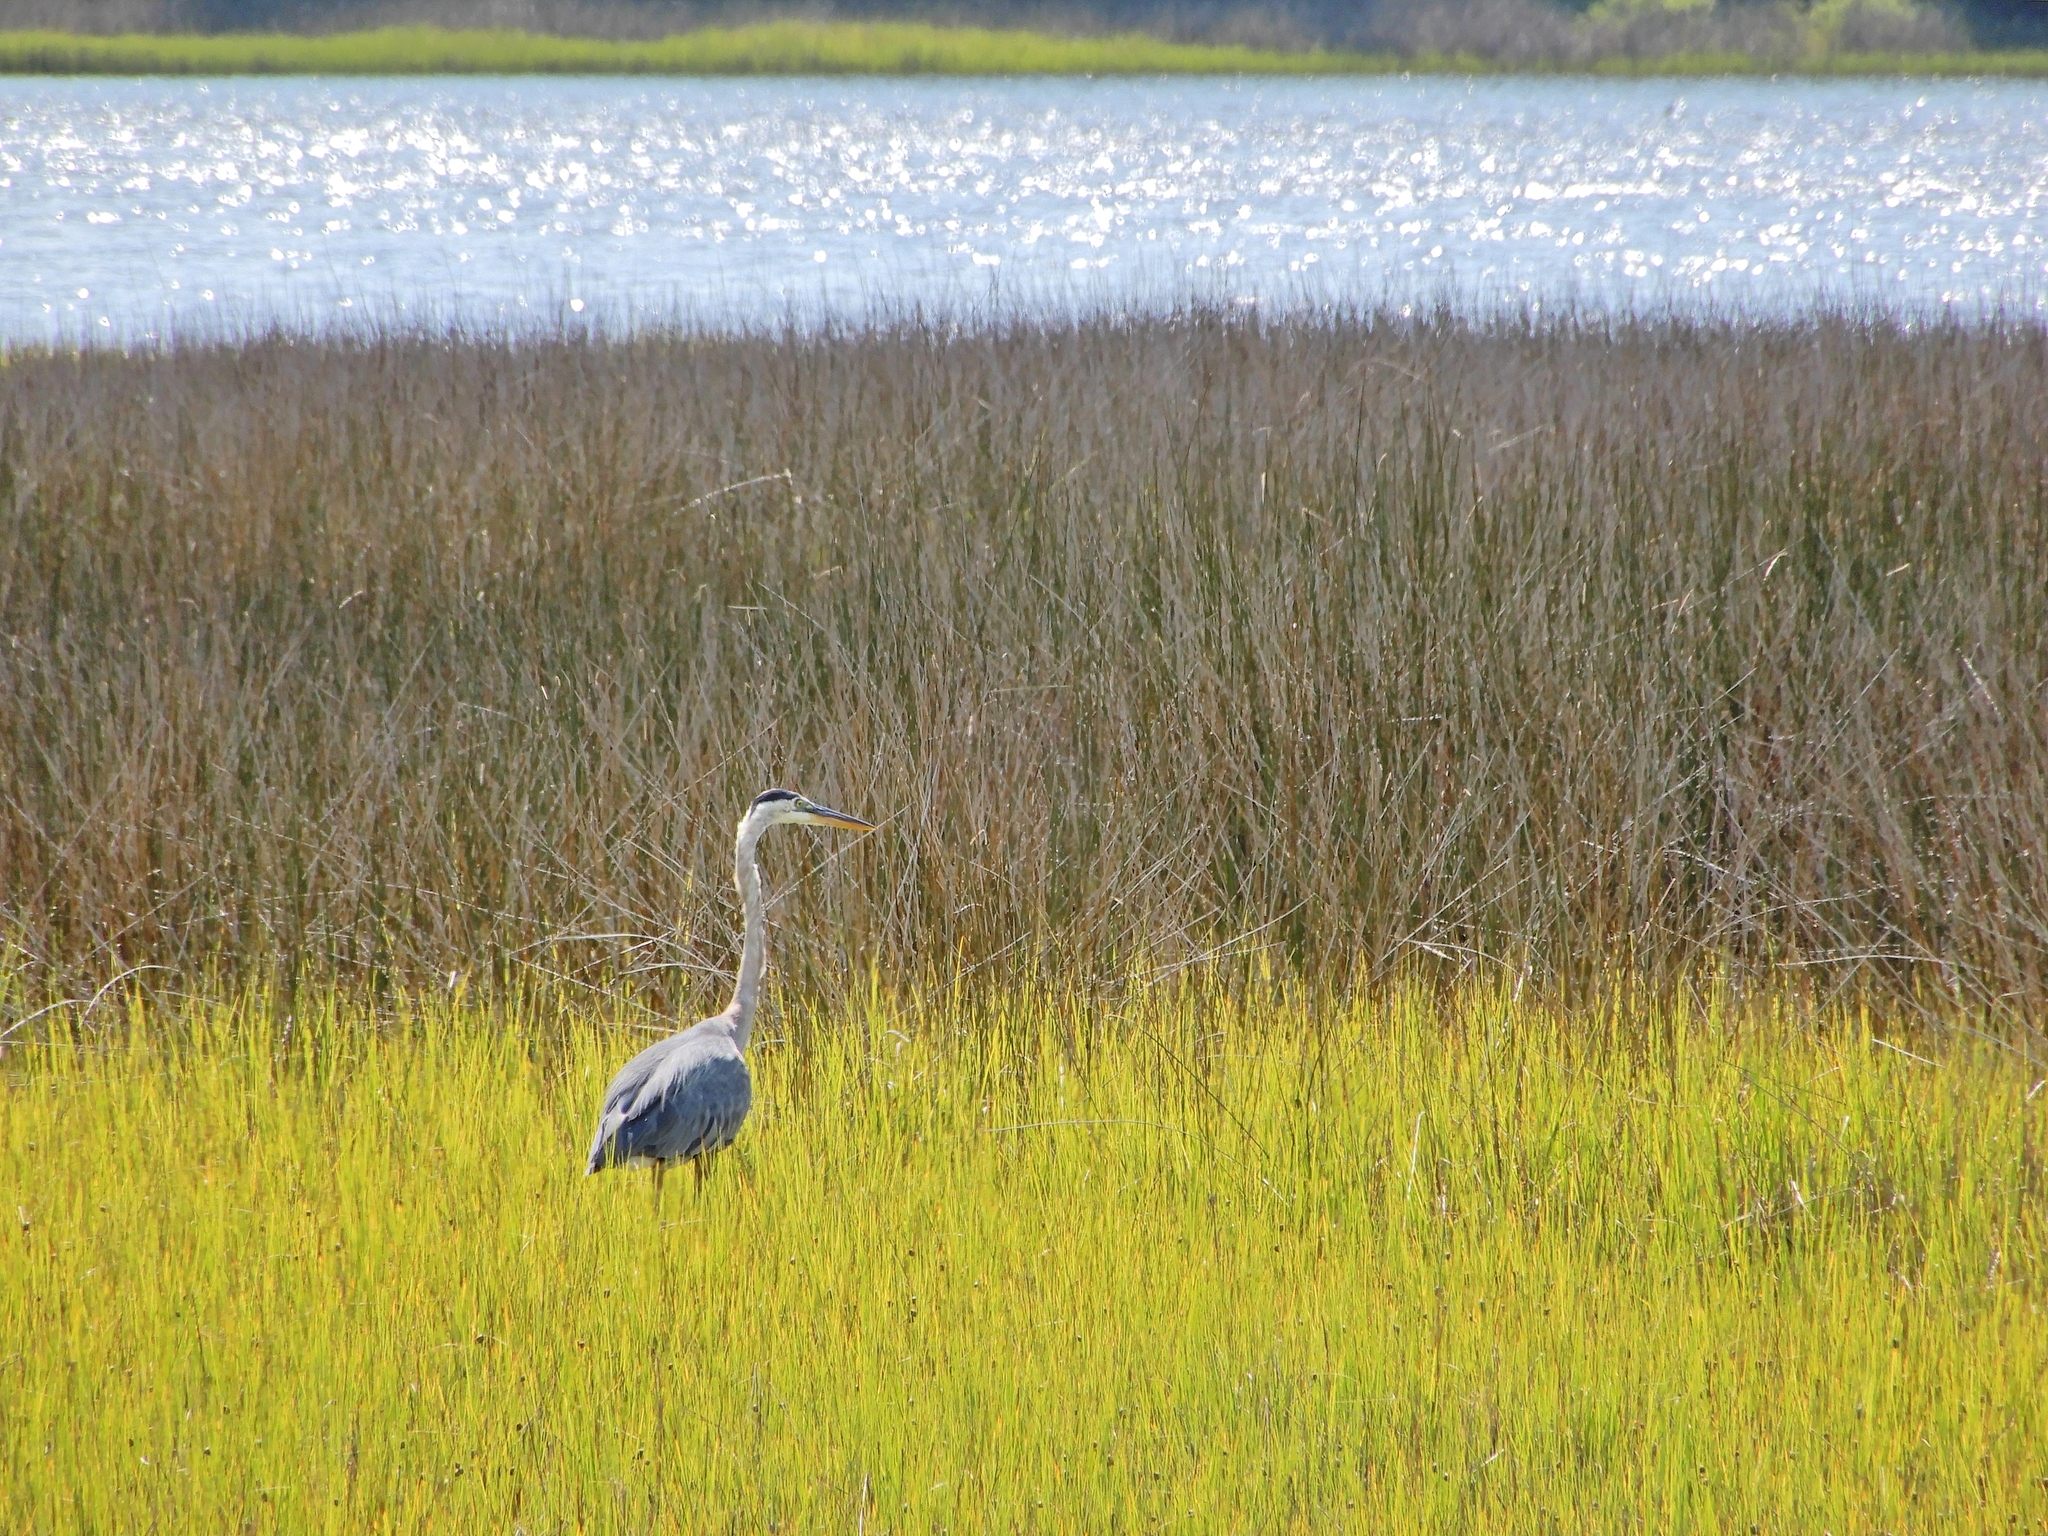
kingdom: Animalia
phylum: Chordata
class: Aves
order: Pelecaniformes
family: Ardeidae
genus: Ardea
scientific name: Ardea herodias
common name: Great blue heron
